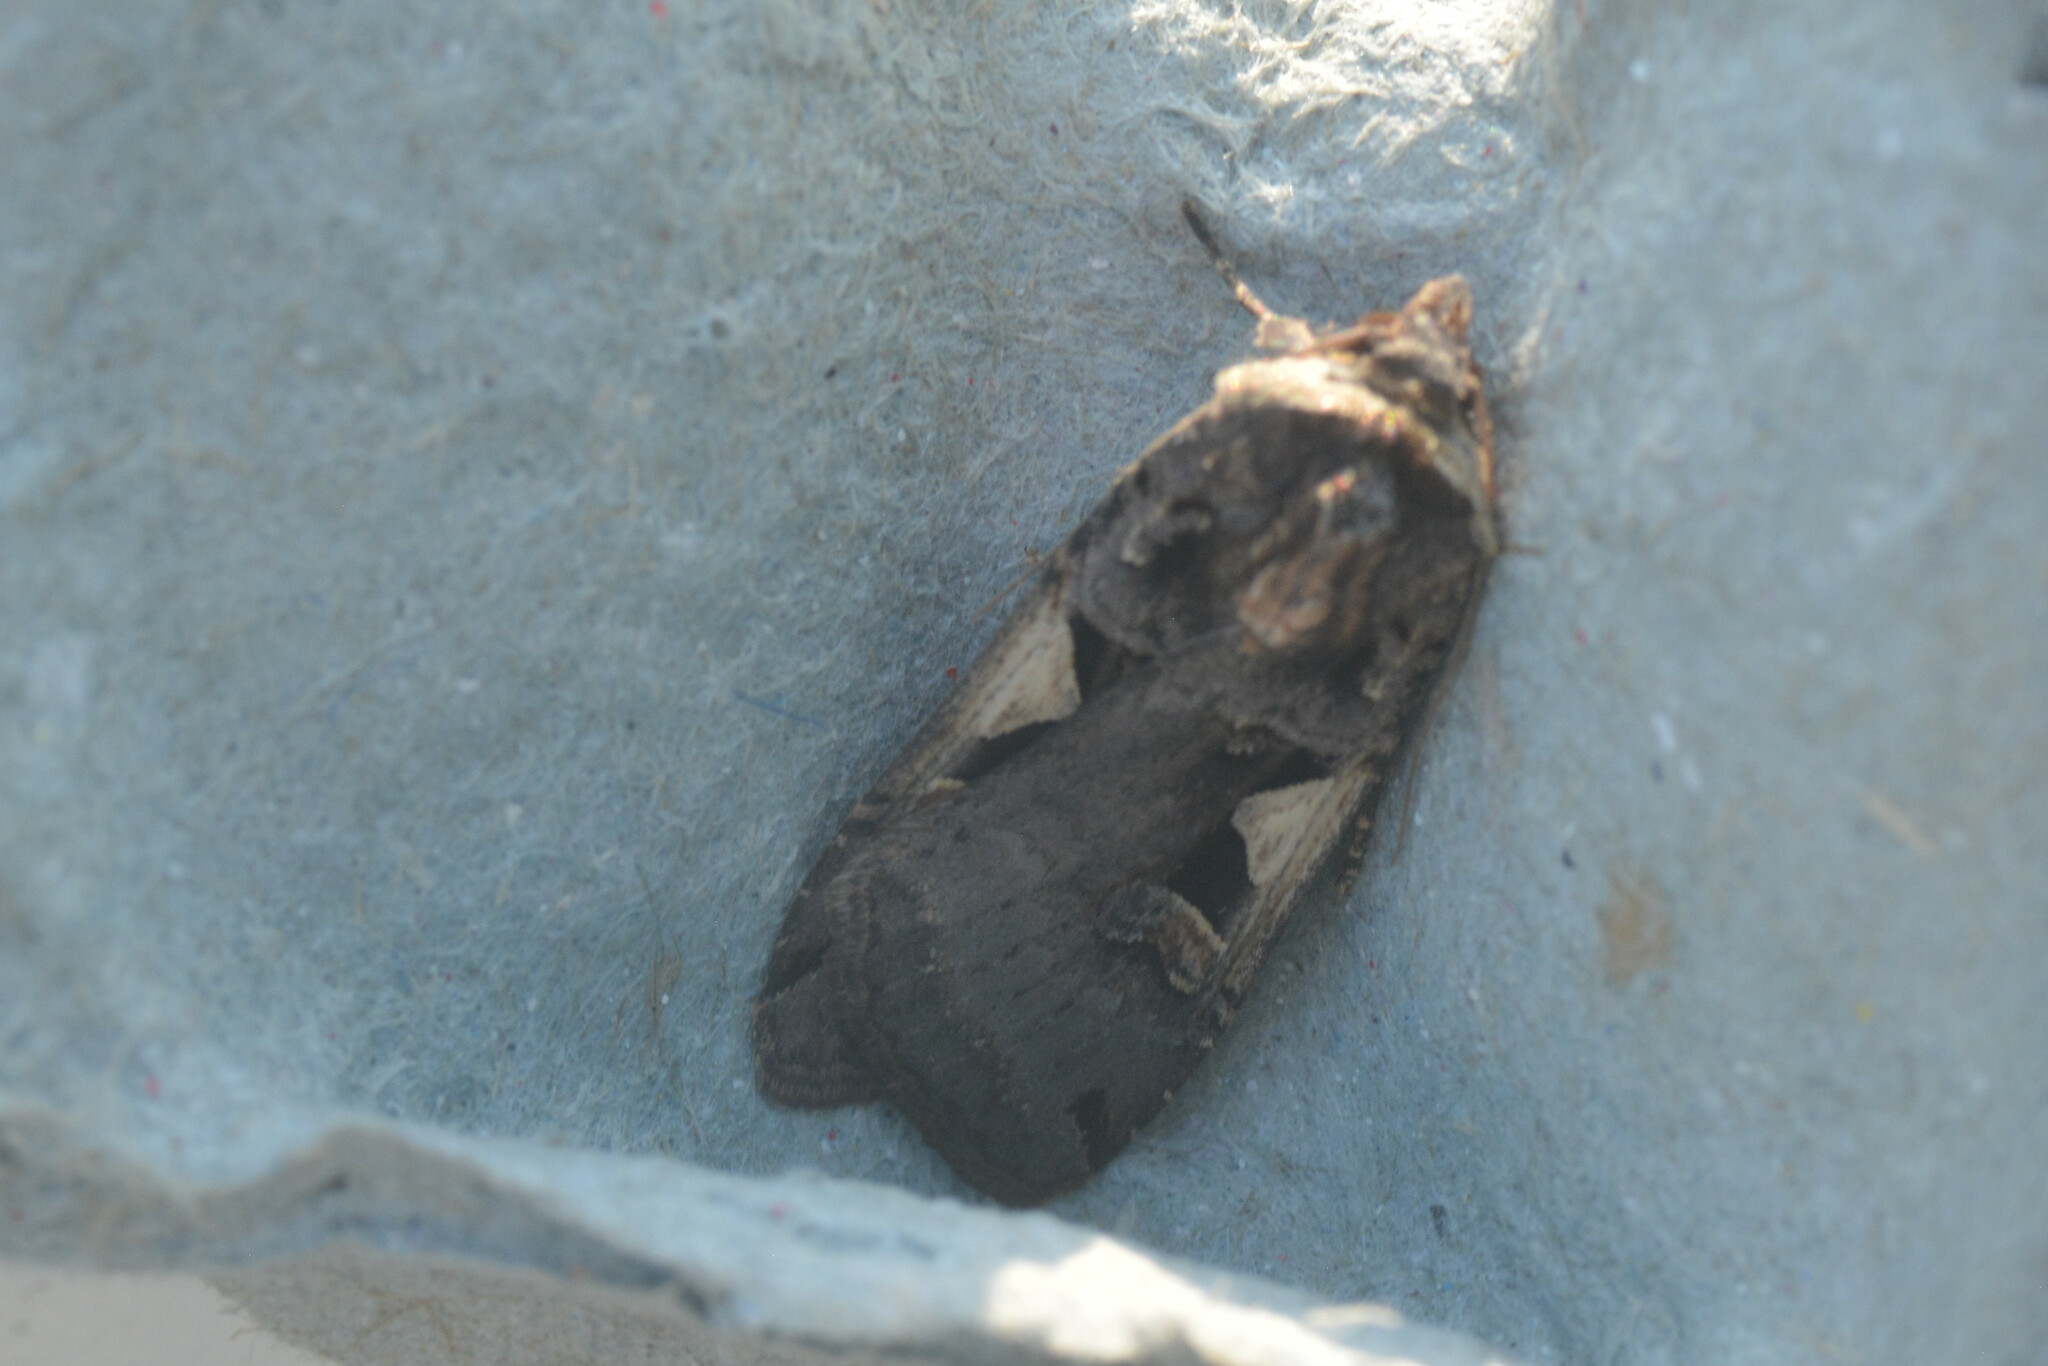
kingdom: Animalia
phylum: Arthropoda
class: Insecta
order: Lepidoptera
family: Noctuidae
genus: Xestia
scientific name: Xestia c-nigrum
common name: Setaceous hebrew character
